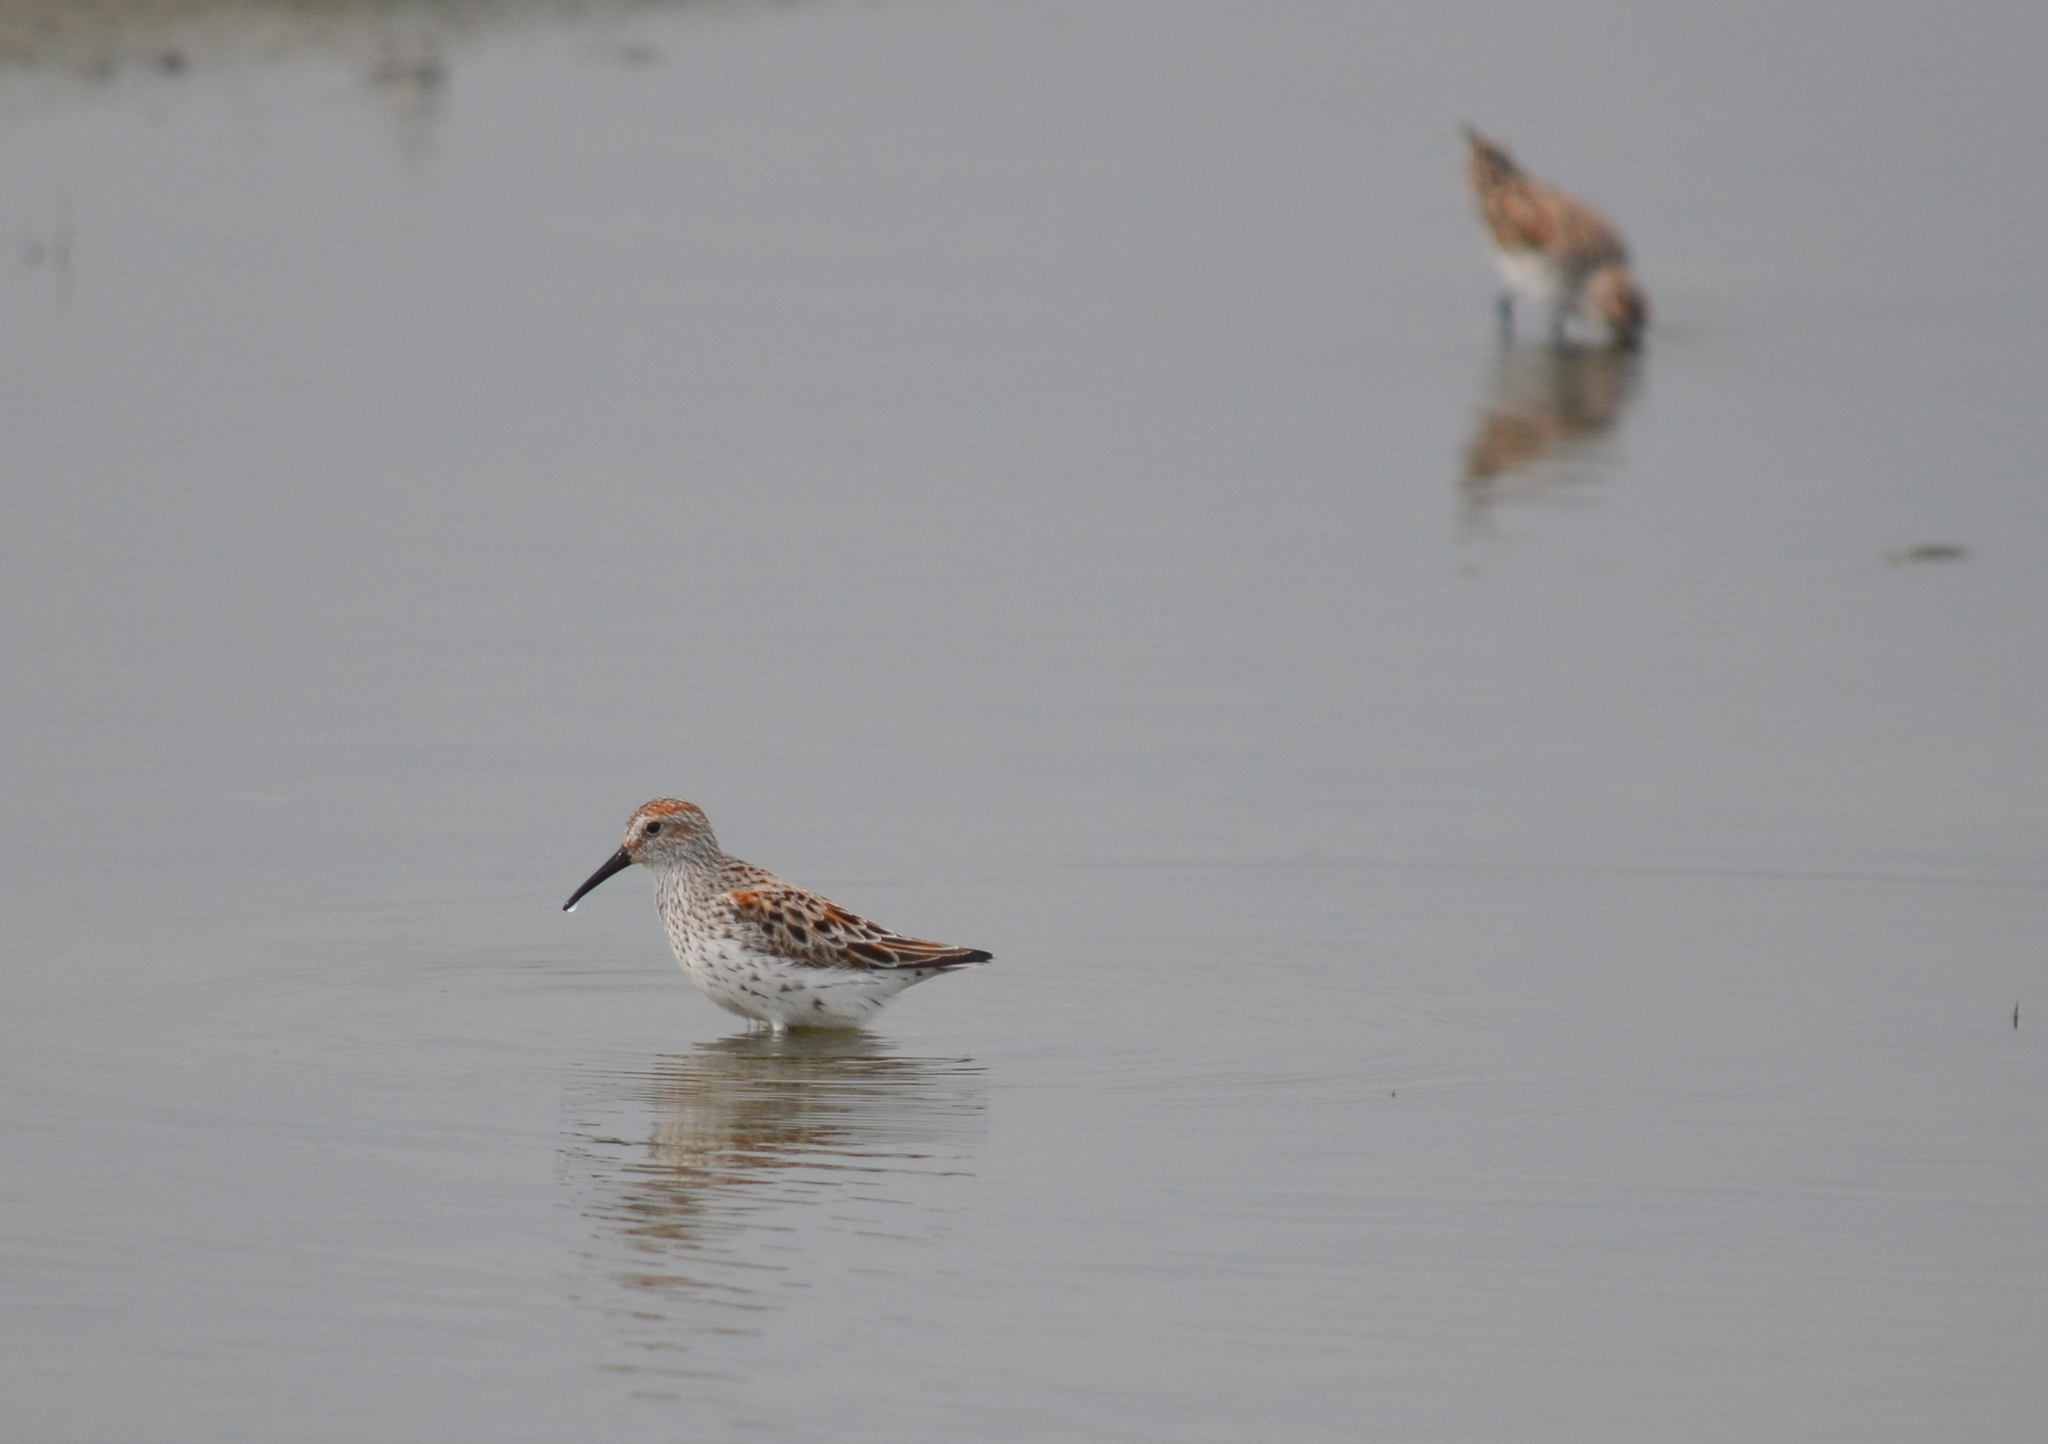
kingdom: Animalia
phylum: Chordata
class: Aves
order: Charadriiformes
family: Scolopacidae
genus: Calidris
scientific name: Calidris mauri
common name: Western sandpiper
